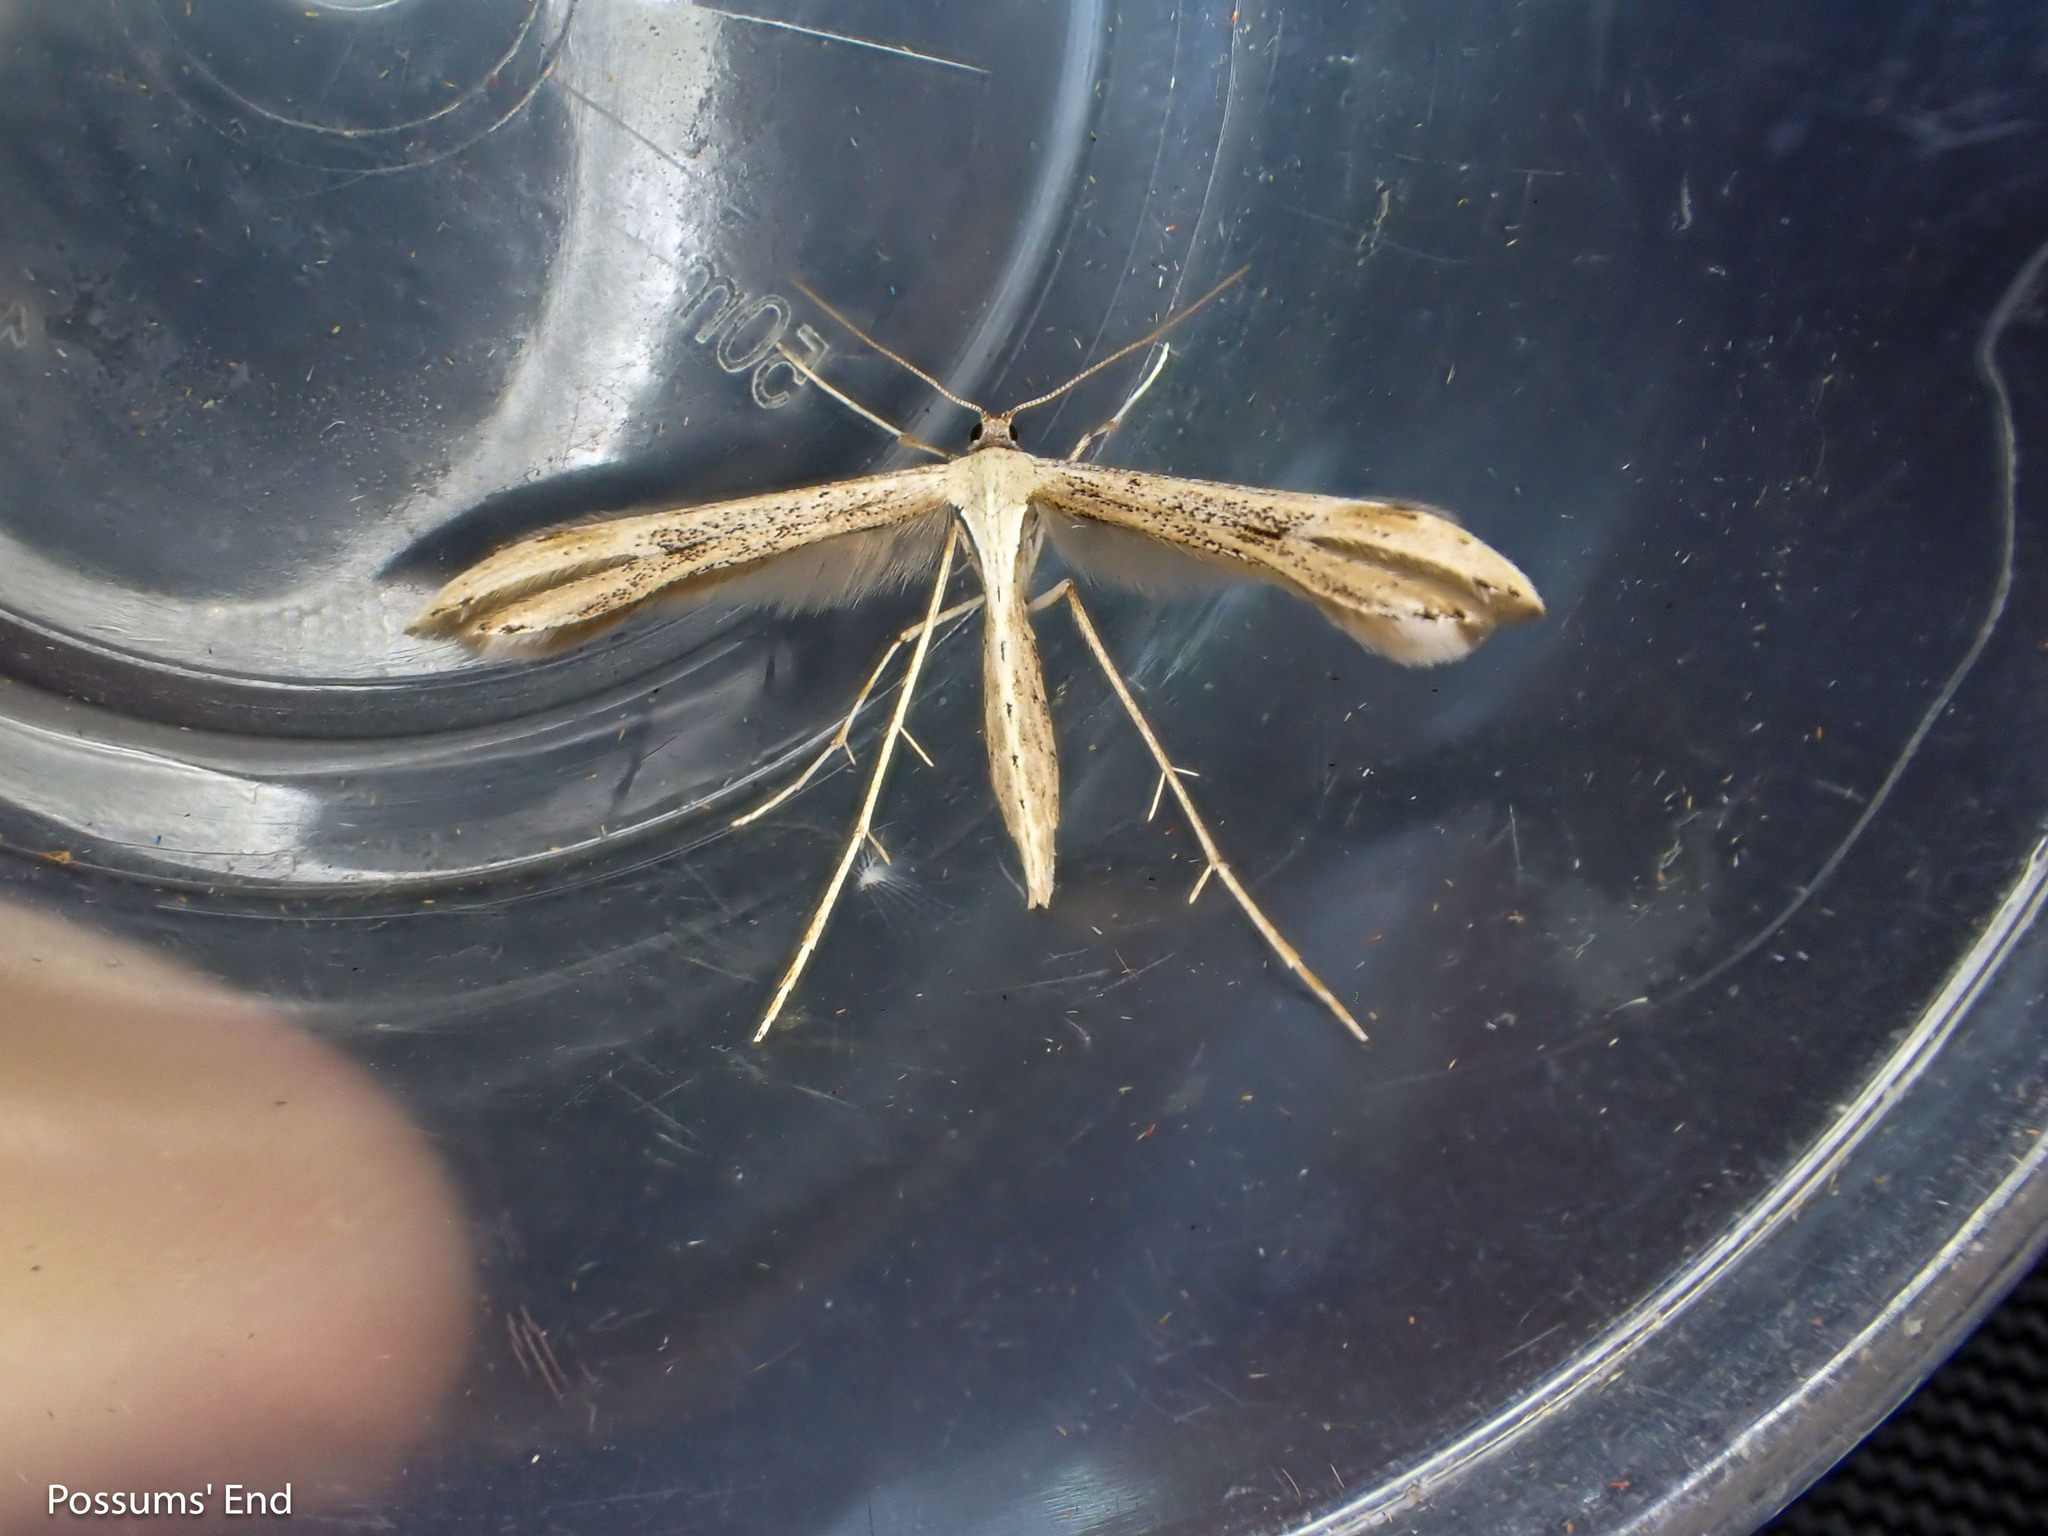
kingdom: Animalia
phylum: Arthropoda
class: Insecta
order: Lepidoptera
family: Pterophoridae
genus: Emmelina
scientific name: Emmelina monodactyla
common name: Common plume
